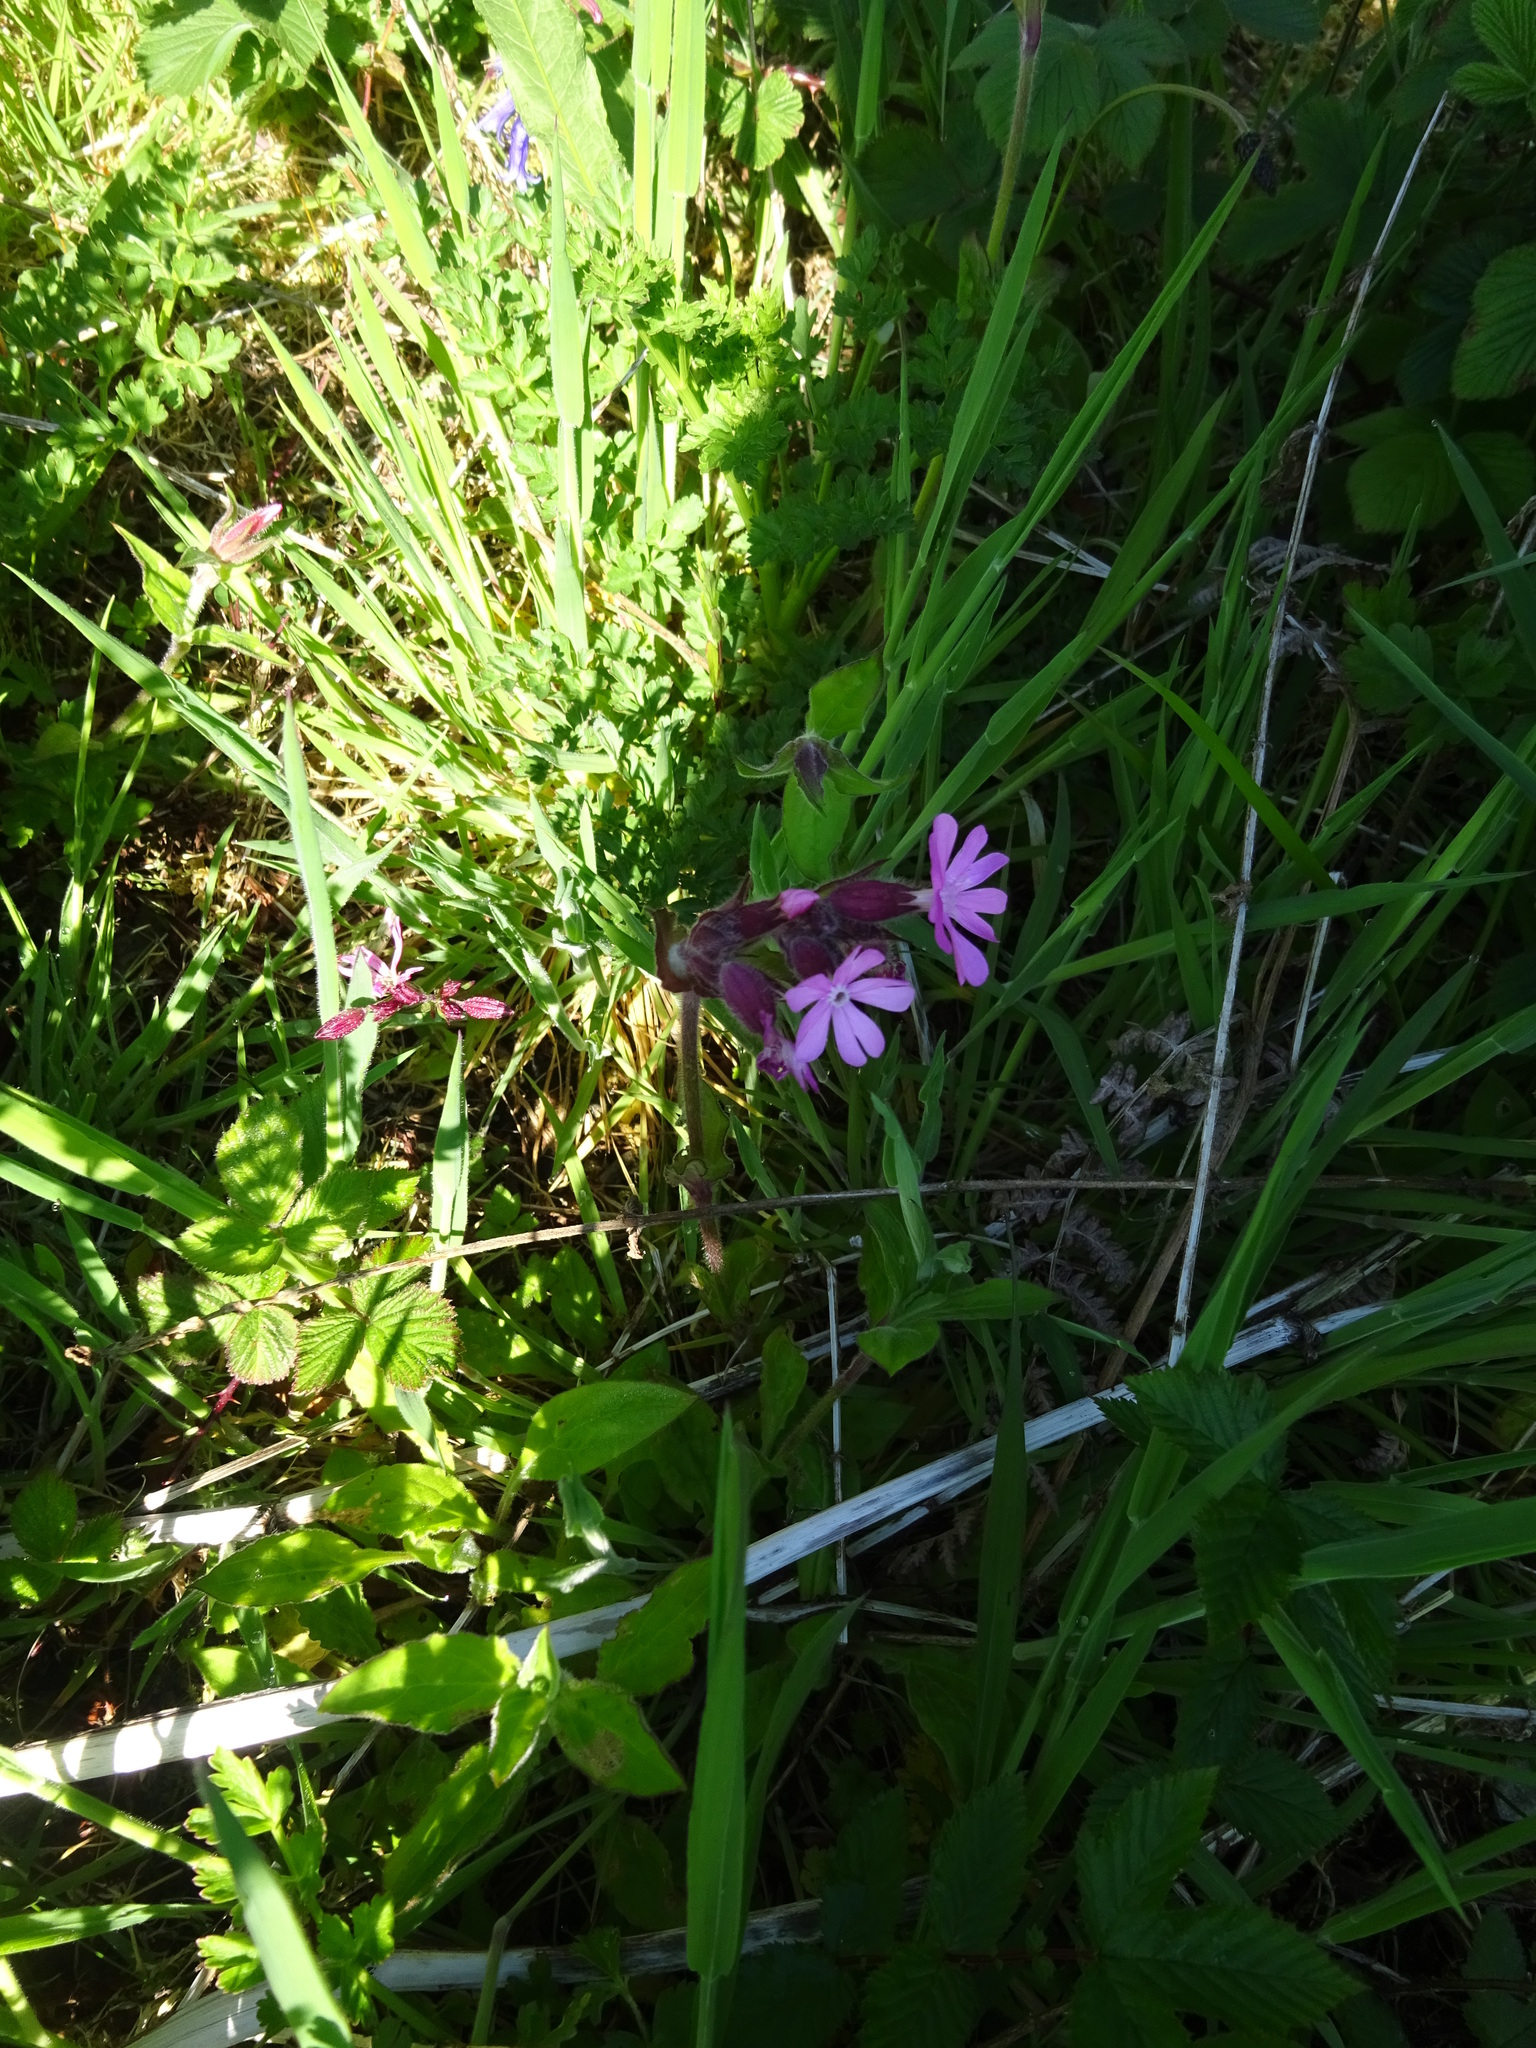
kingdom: Plantae
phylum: Tracheophyta
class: Magnoliopsida
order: Caryophyllales
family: Caryophyllaceae
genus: Silene
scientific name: Silene dioica
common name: Red campion
